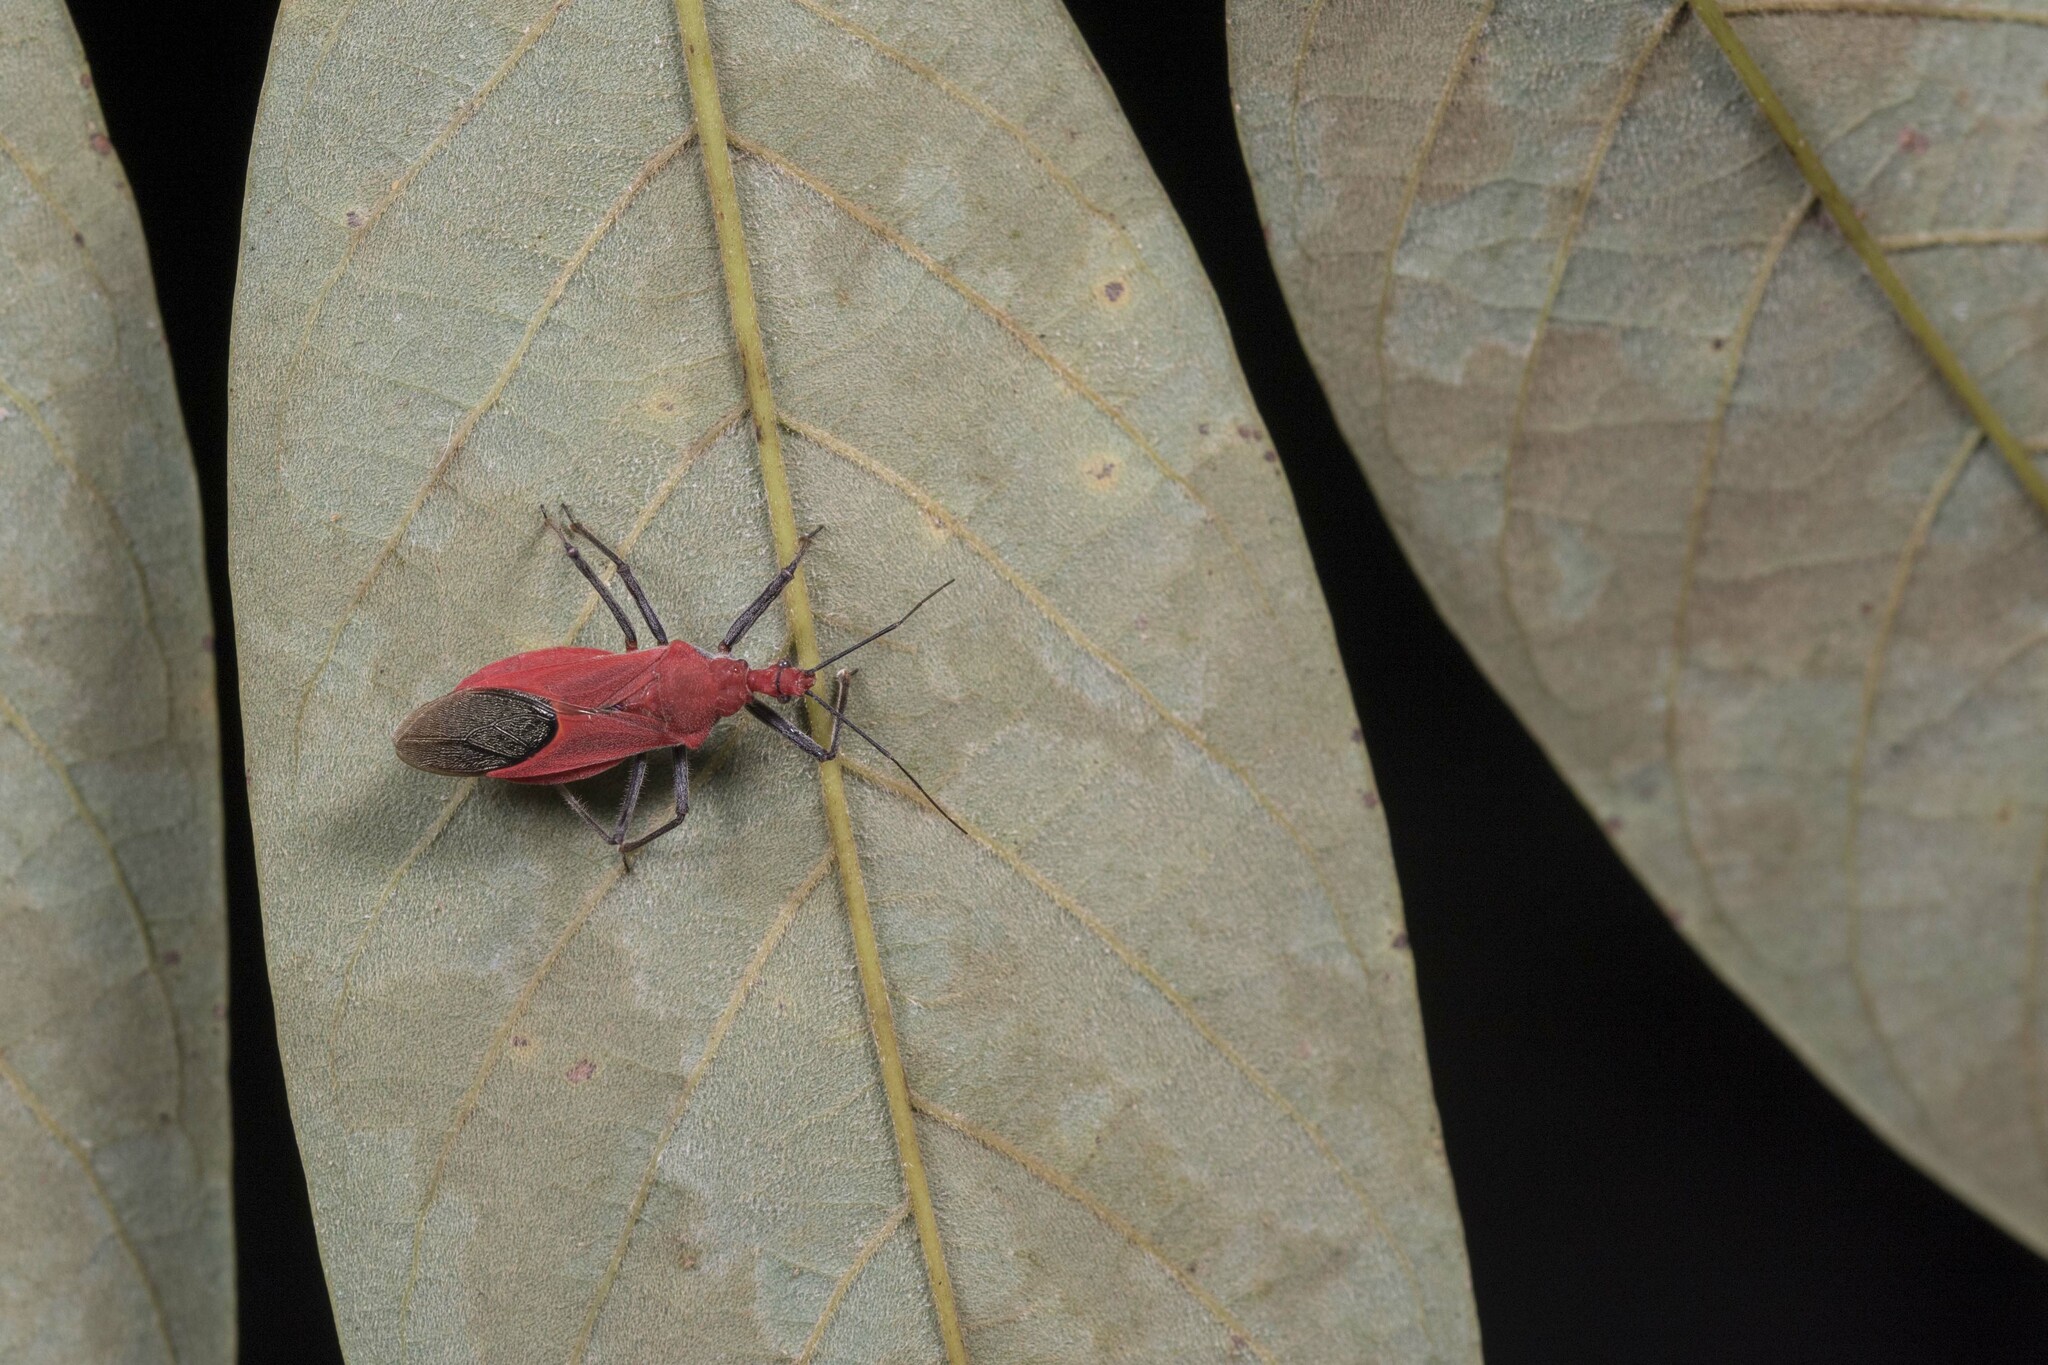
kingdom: Animalia
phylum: Arthropoda
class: Insecta
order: Hemiptera
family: Reduviidae
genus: Cutocoris
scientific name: Cutocoris
